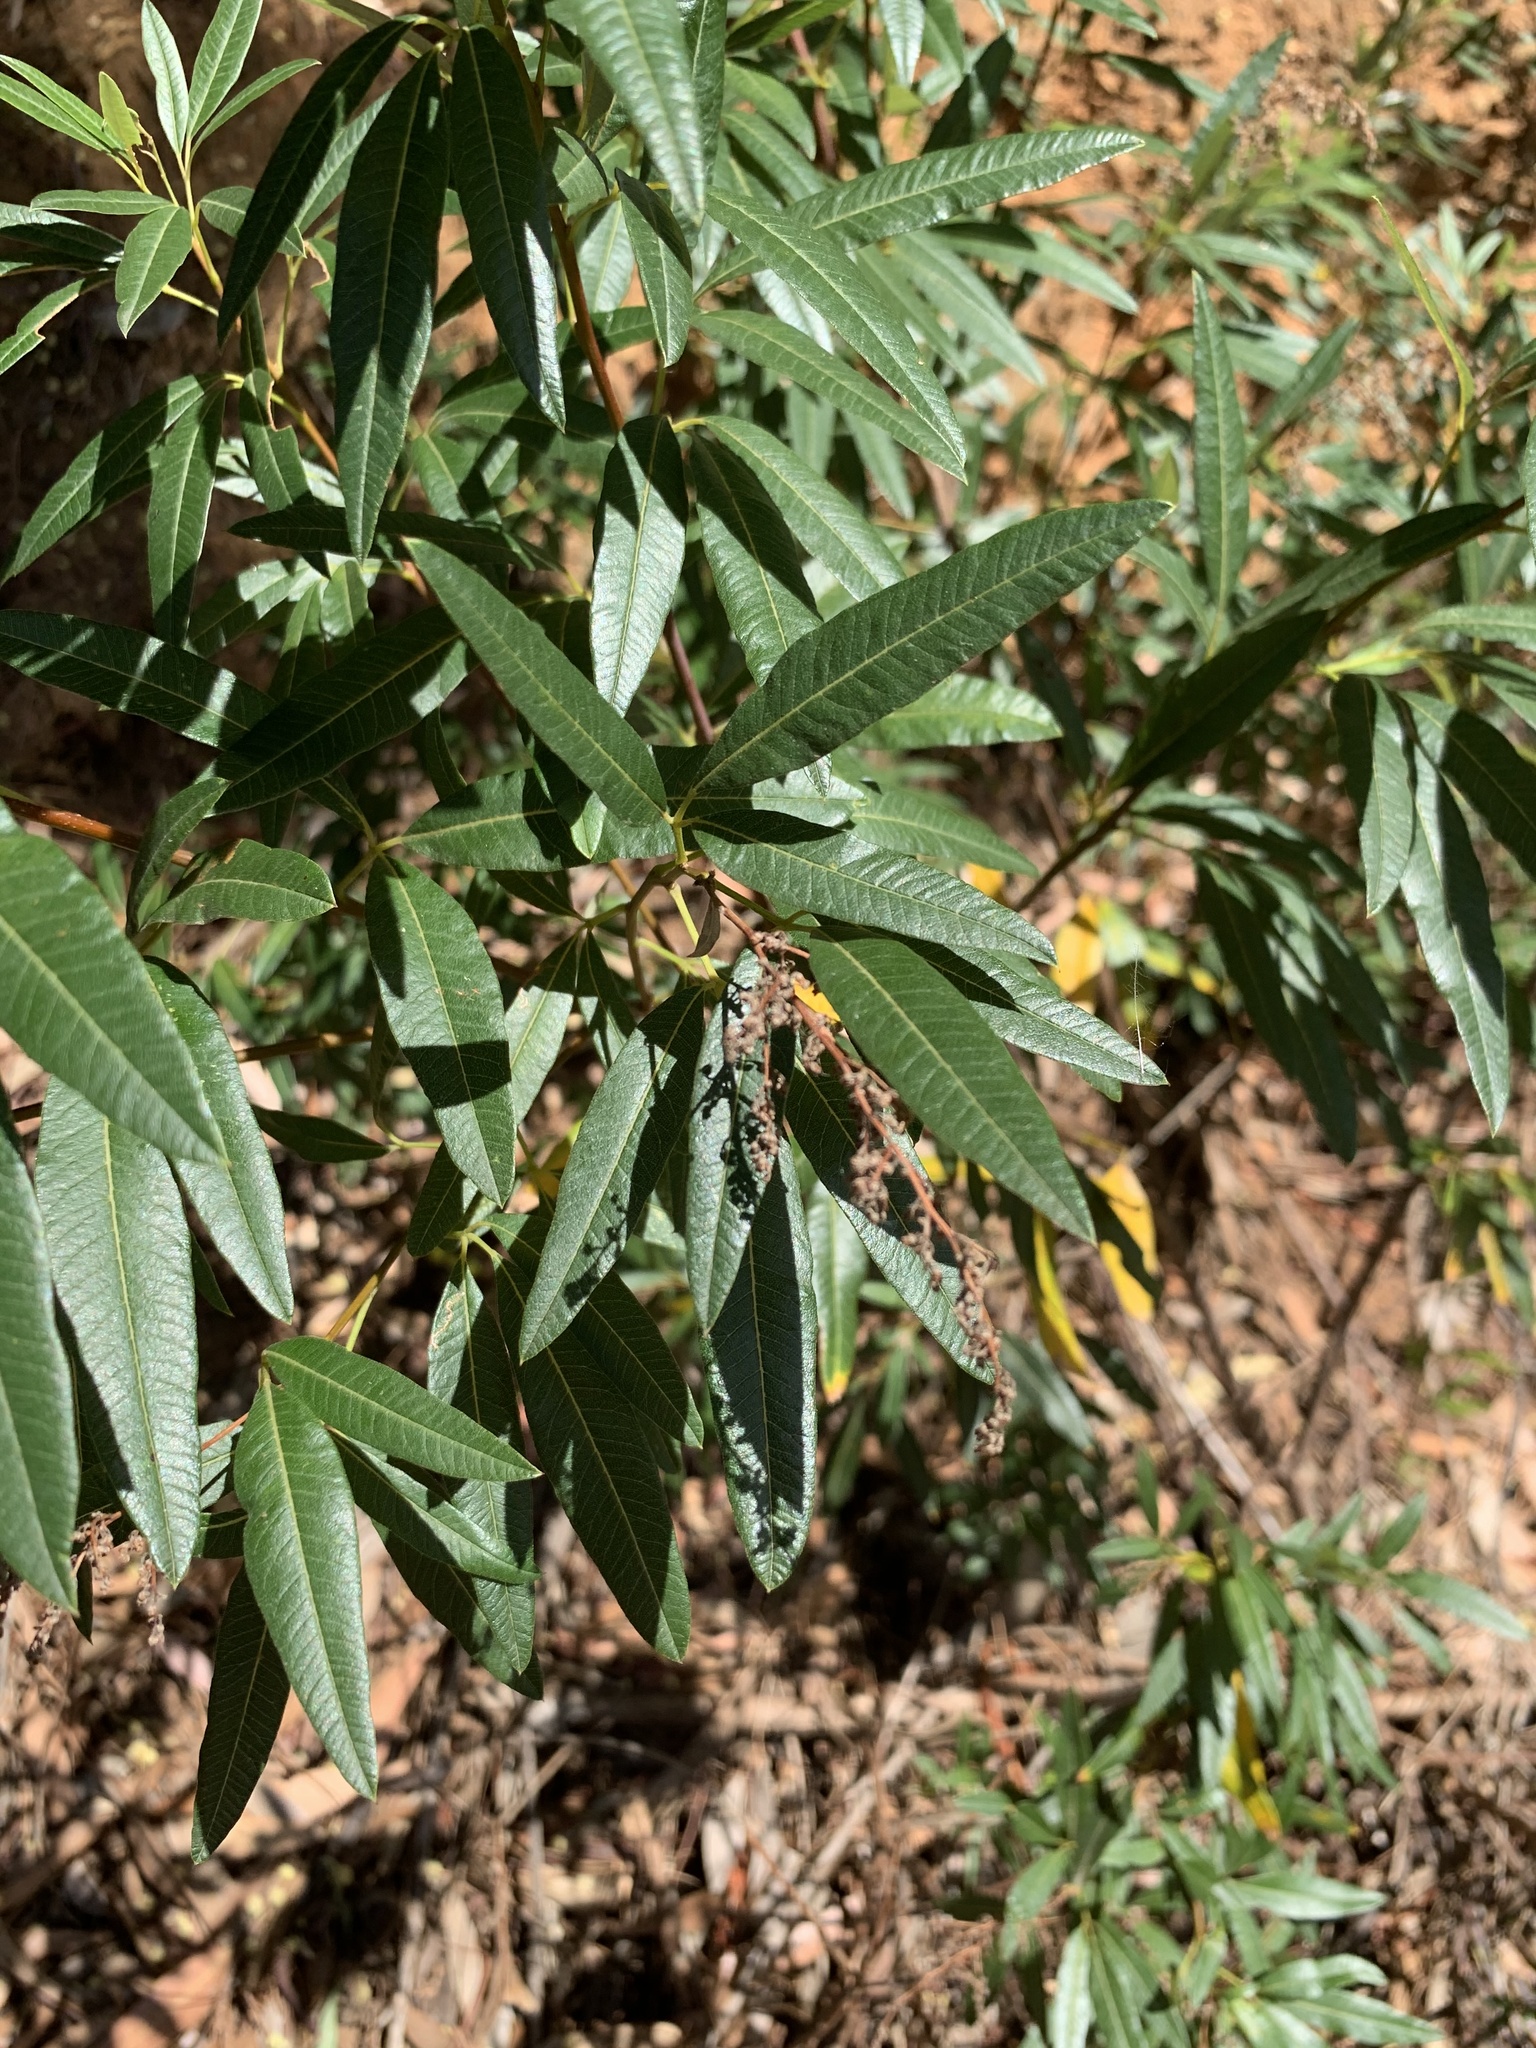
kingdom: Plantae
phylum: Tracheophyta
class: Magnoliopsida
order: Sapindales
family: Anacardiaceae
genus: Searsia
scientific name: Searsia angustifolia
